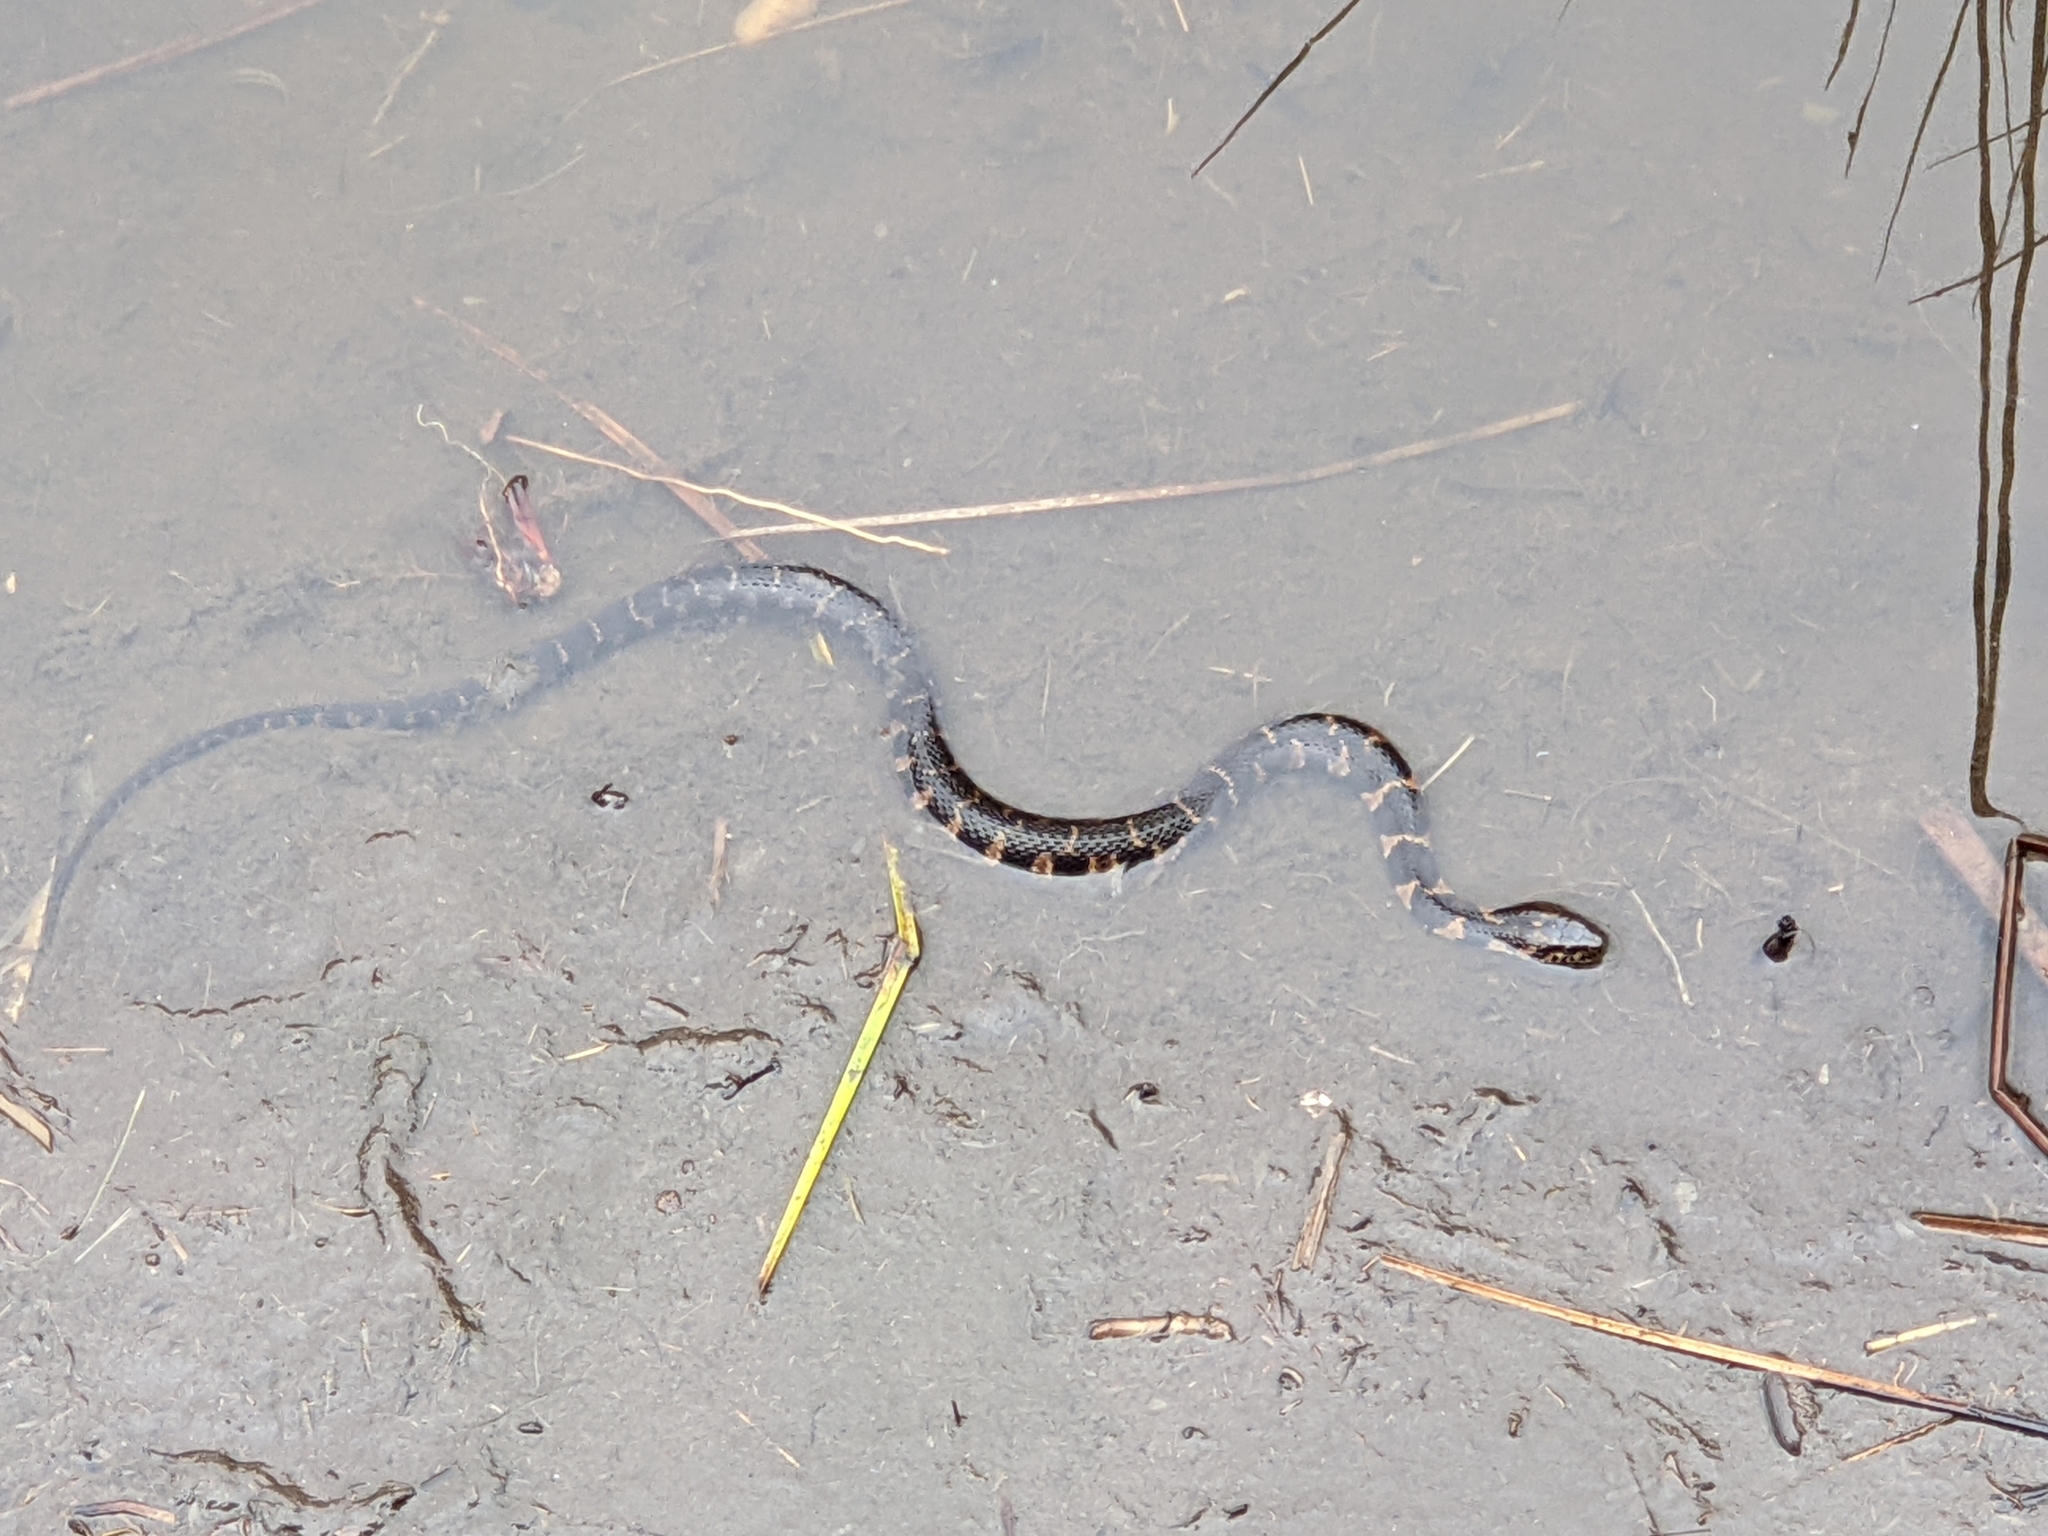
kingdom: Animalia
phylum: Chordata
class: Squamata
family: Colubridae
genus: Nerodia
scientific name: Nerodia sipedon
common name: Northern water snake
